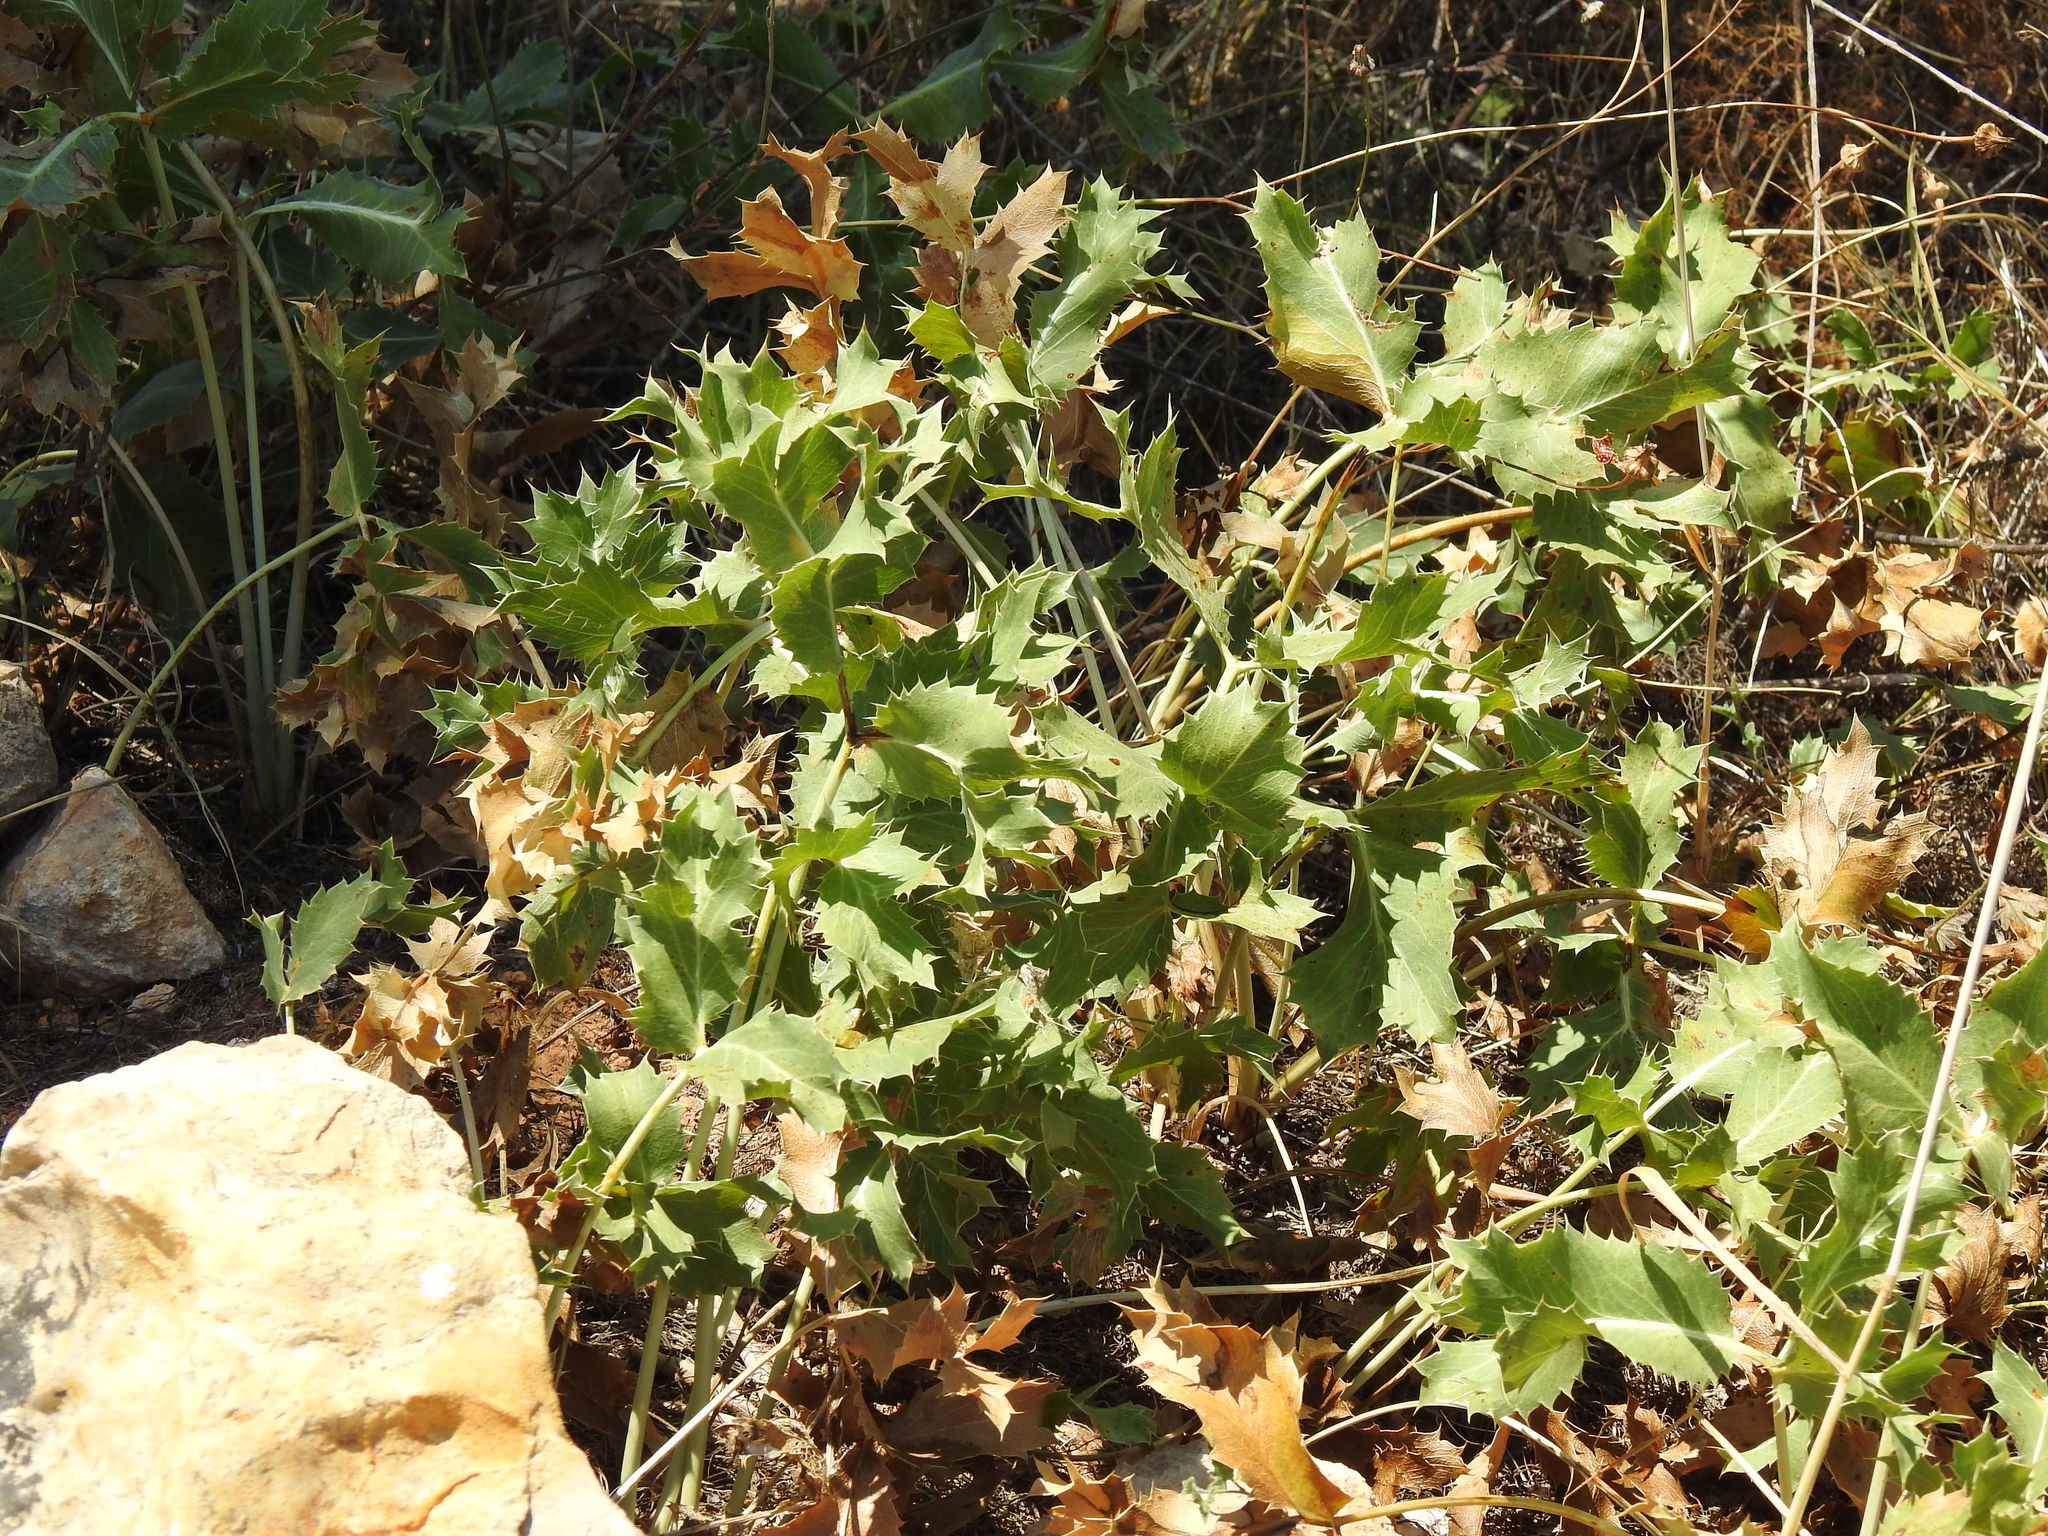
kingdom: Plantae
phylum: Tracheophyta
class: Magnoliopsida
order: Apiales
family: Apiaceae
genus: Eryngium
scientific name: Eryngium campestre
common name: Field eryngo
